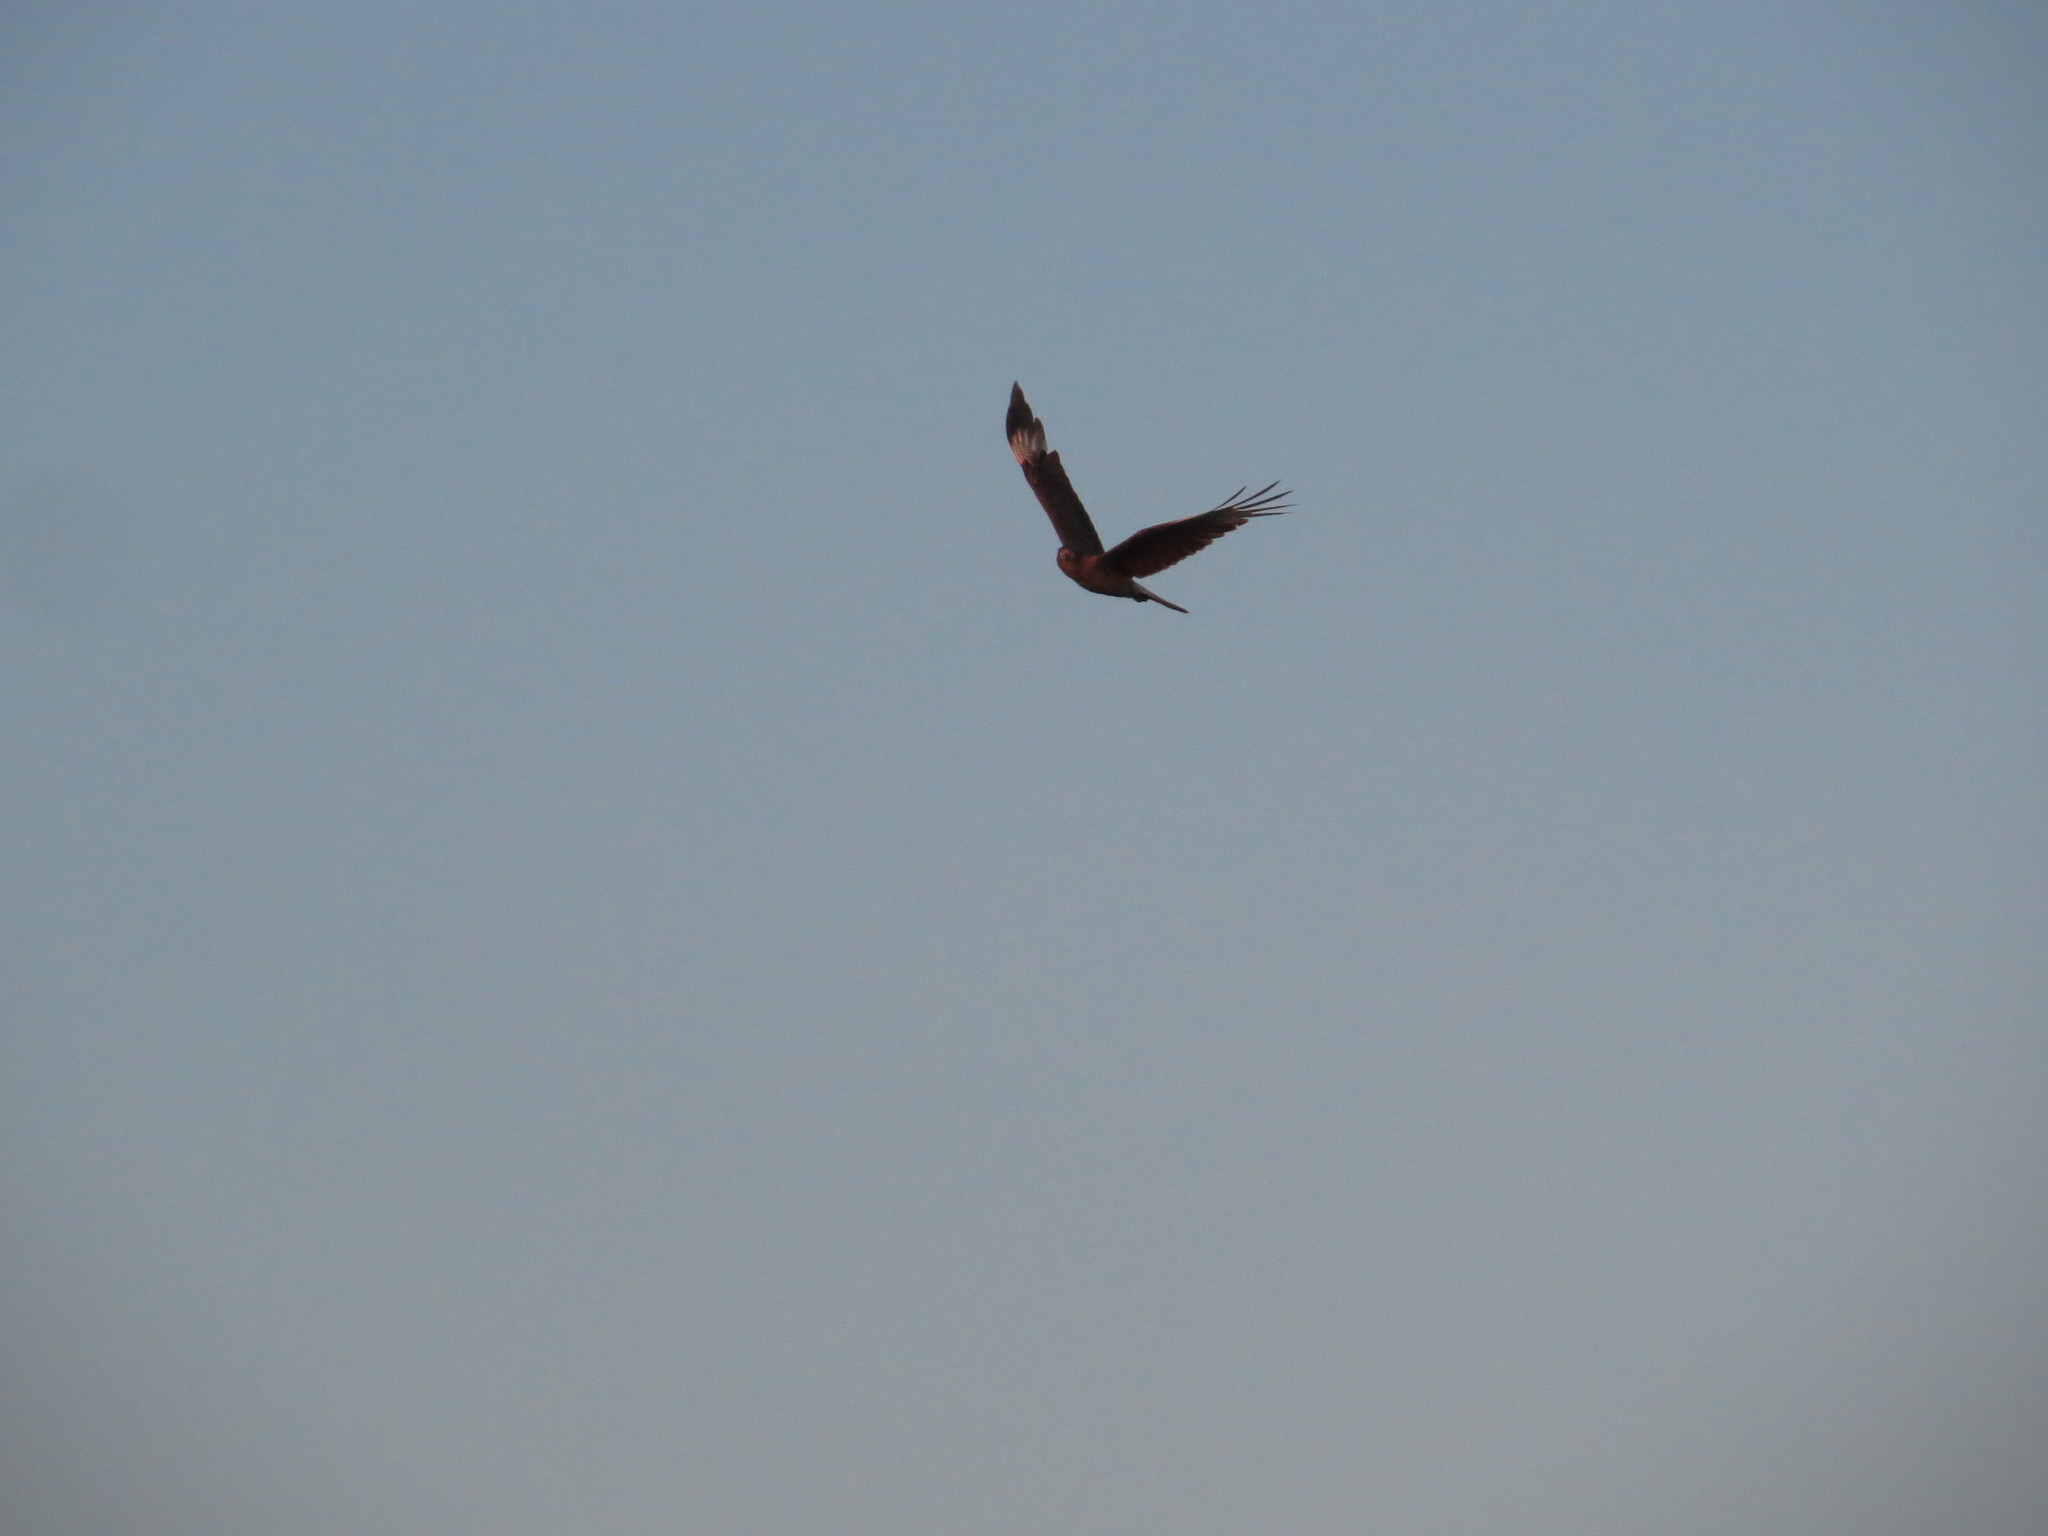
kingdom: Animalia
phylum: Chordata
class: Aves
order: Falconiformes
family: Falconidae
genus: Daptrius
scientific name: Daptrius
